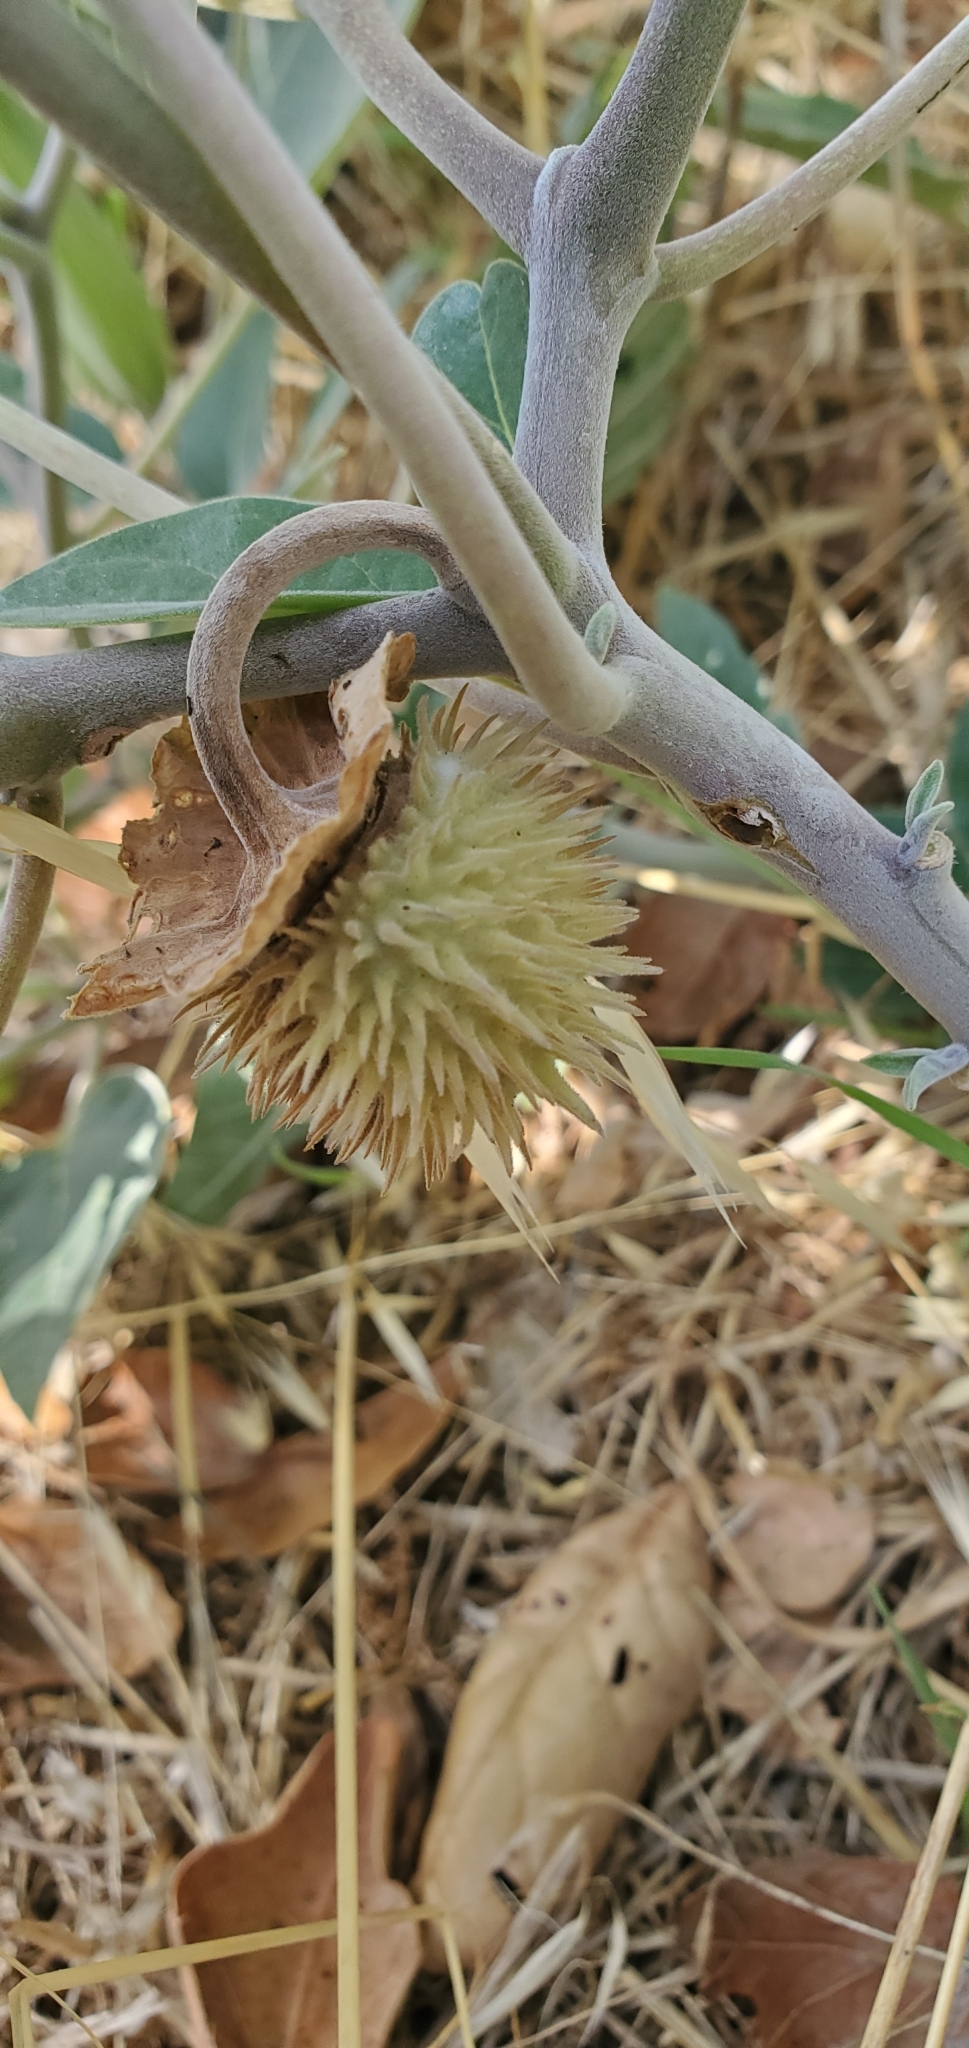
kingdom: Plantae
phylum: Tracheophyta
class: Magnoliopsida
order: Solanales
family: Solanaceae
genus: Datura
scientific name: Datura wrightii
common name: Sacred thorn-apple
